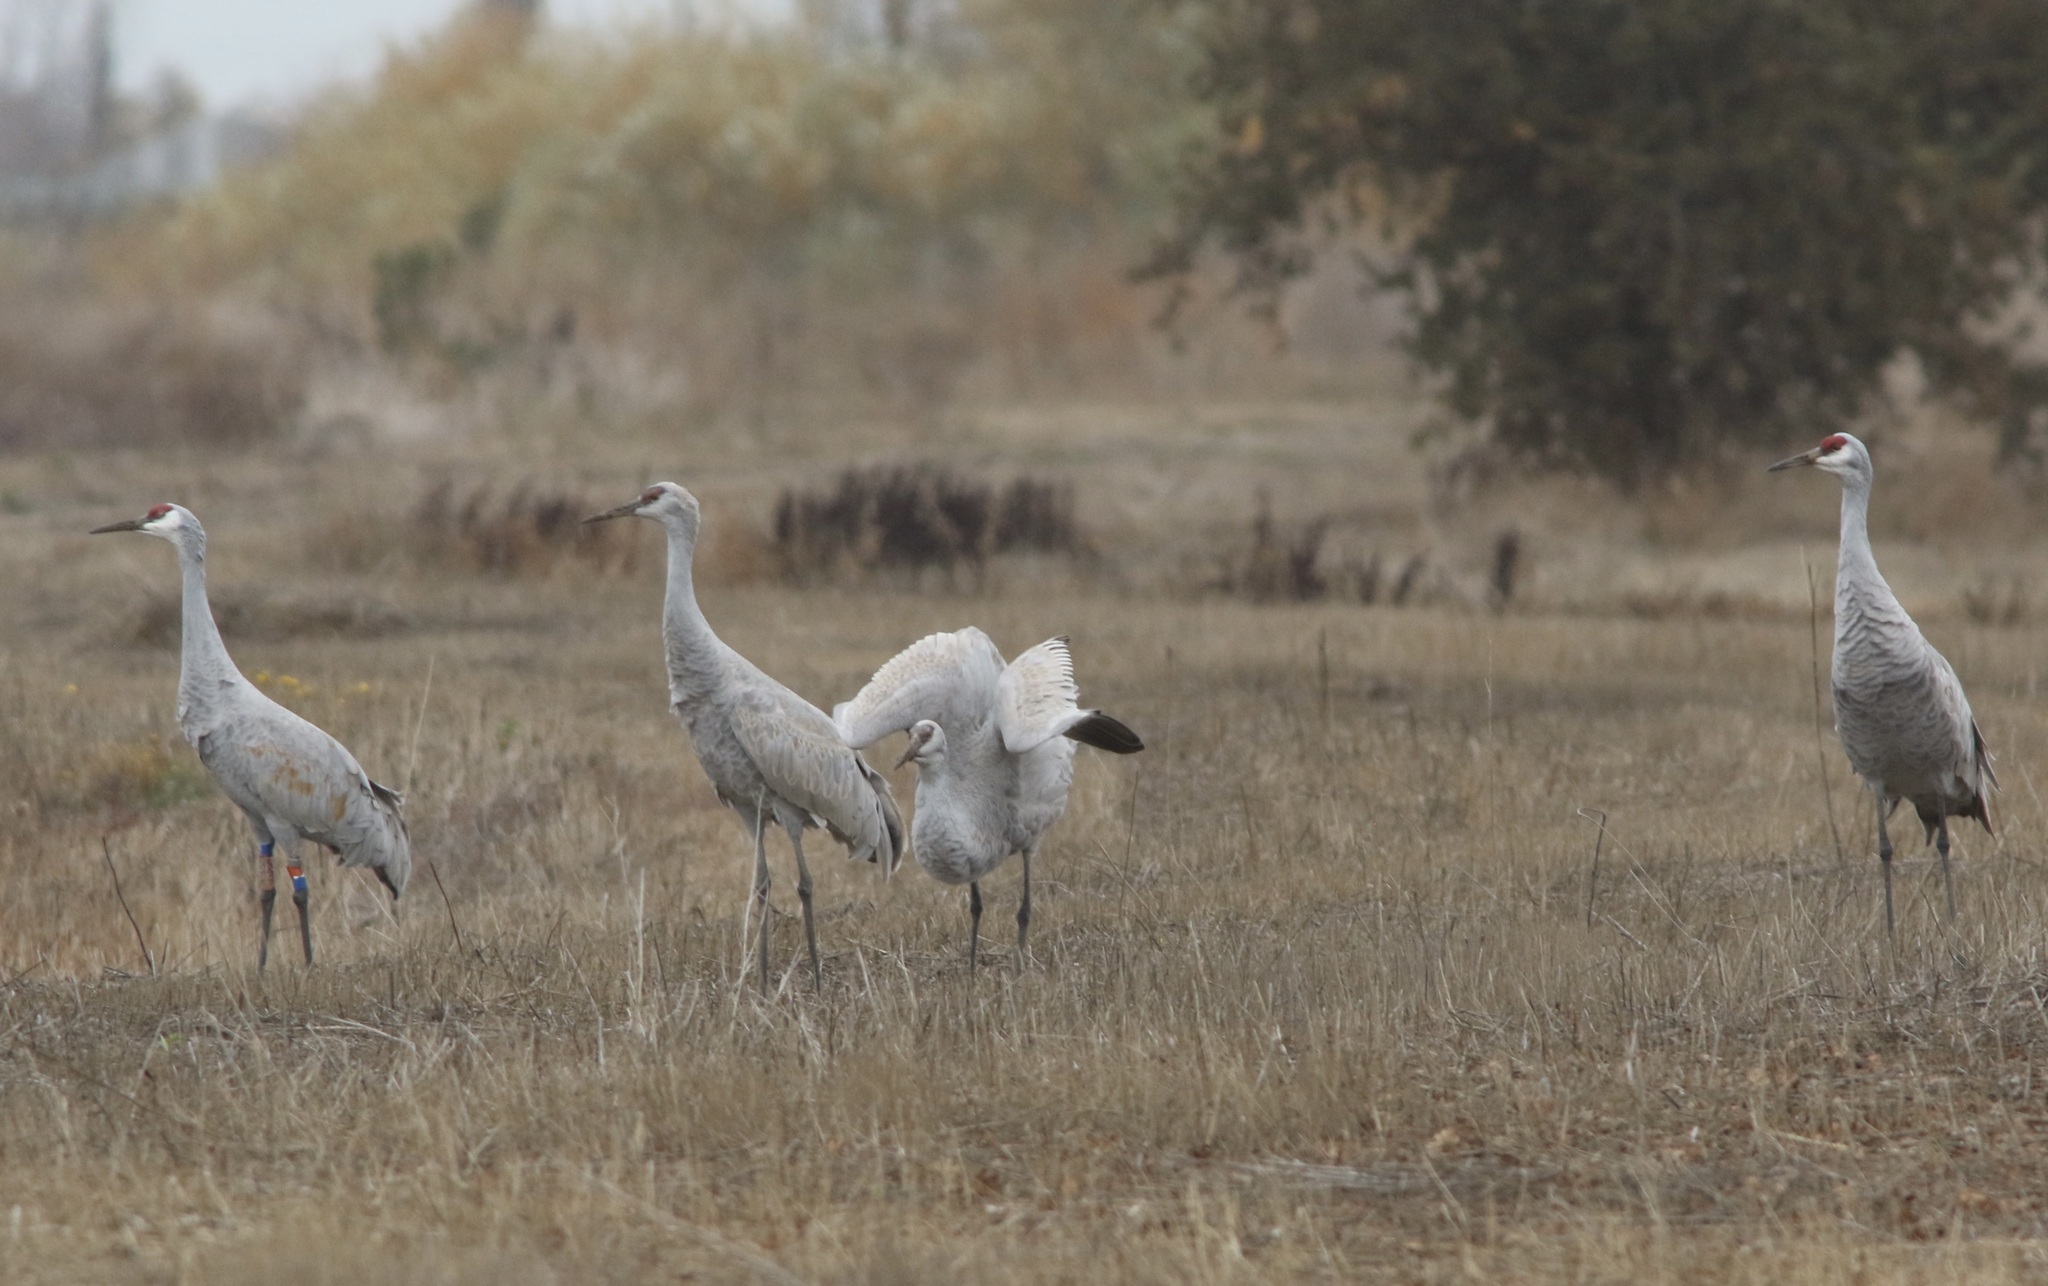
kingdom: Animalia
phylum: Chordata
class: Aves
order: Gruiformes
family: Gruidae
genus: Grus
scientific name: Grus canadensis
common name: Sandhill crane
